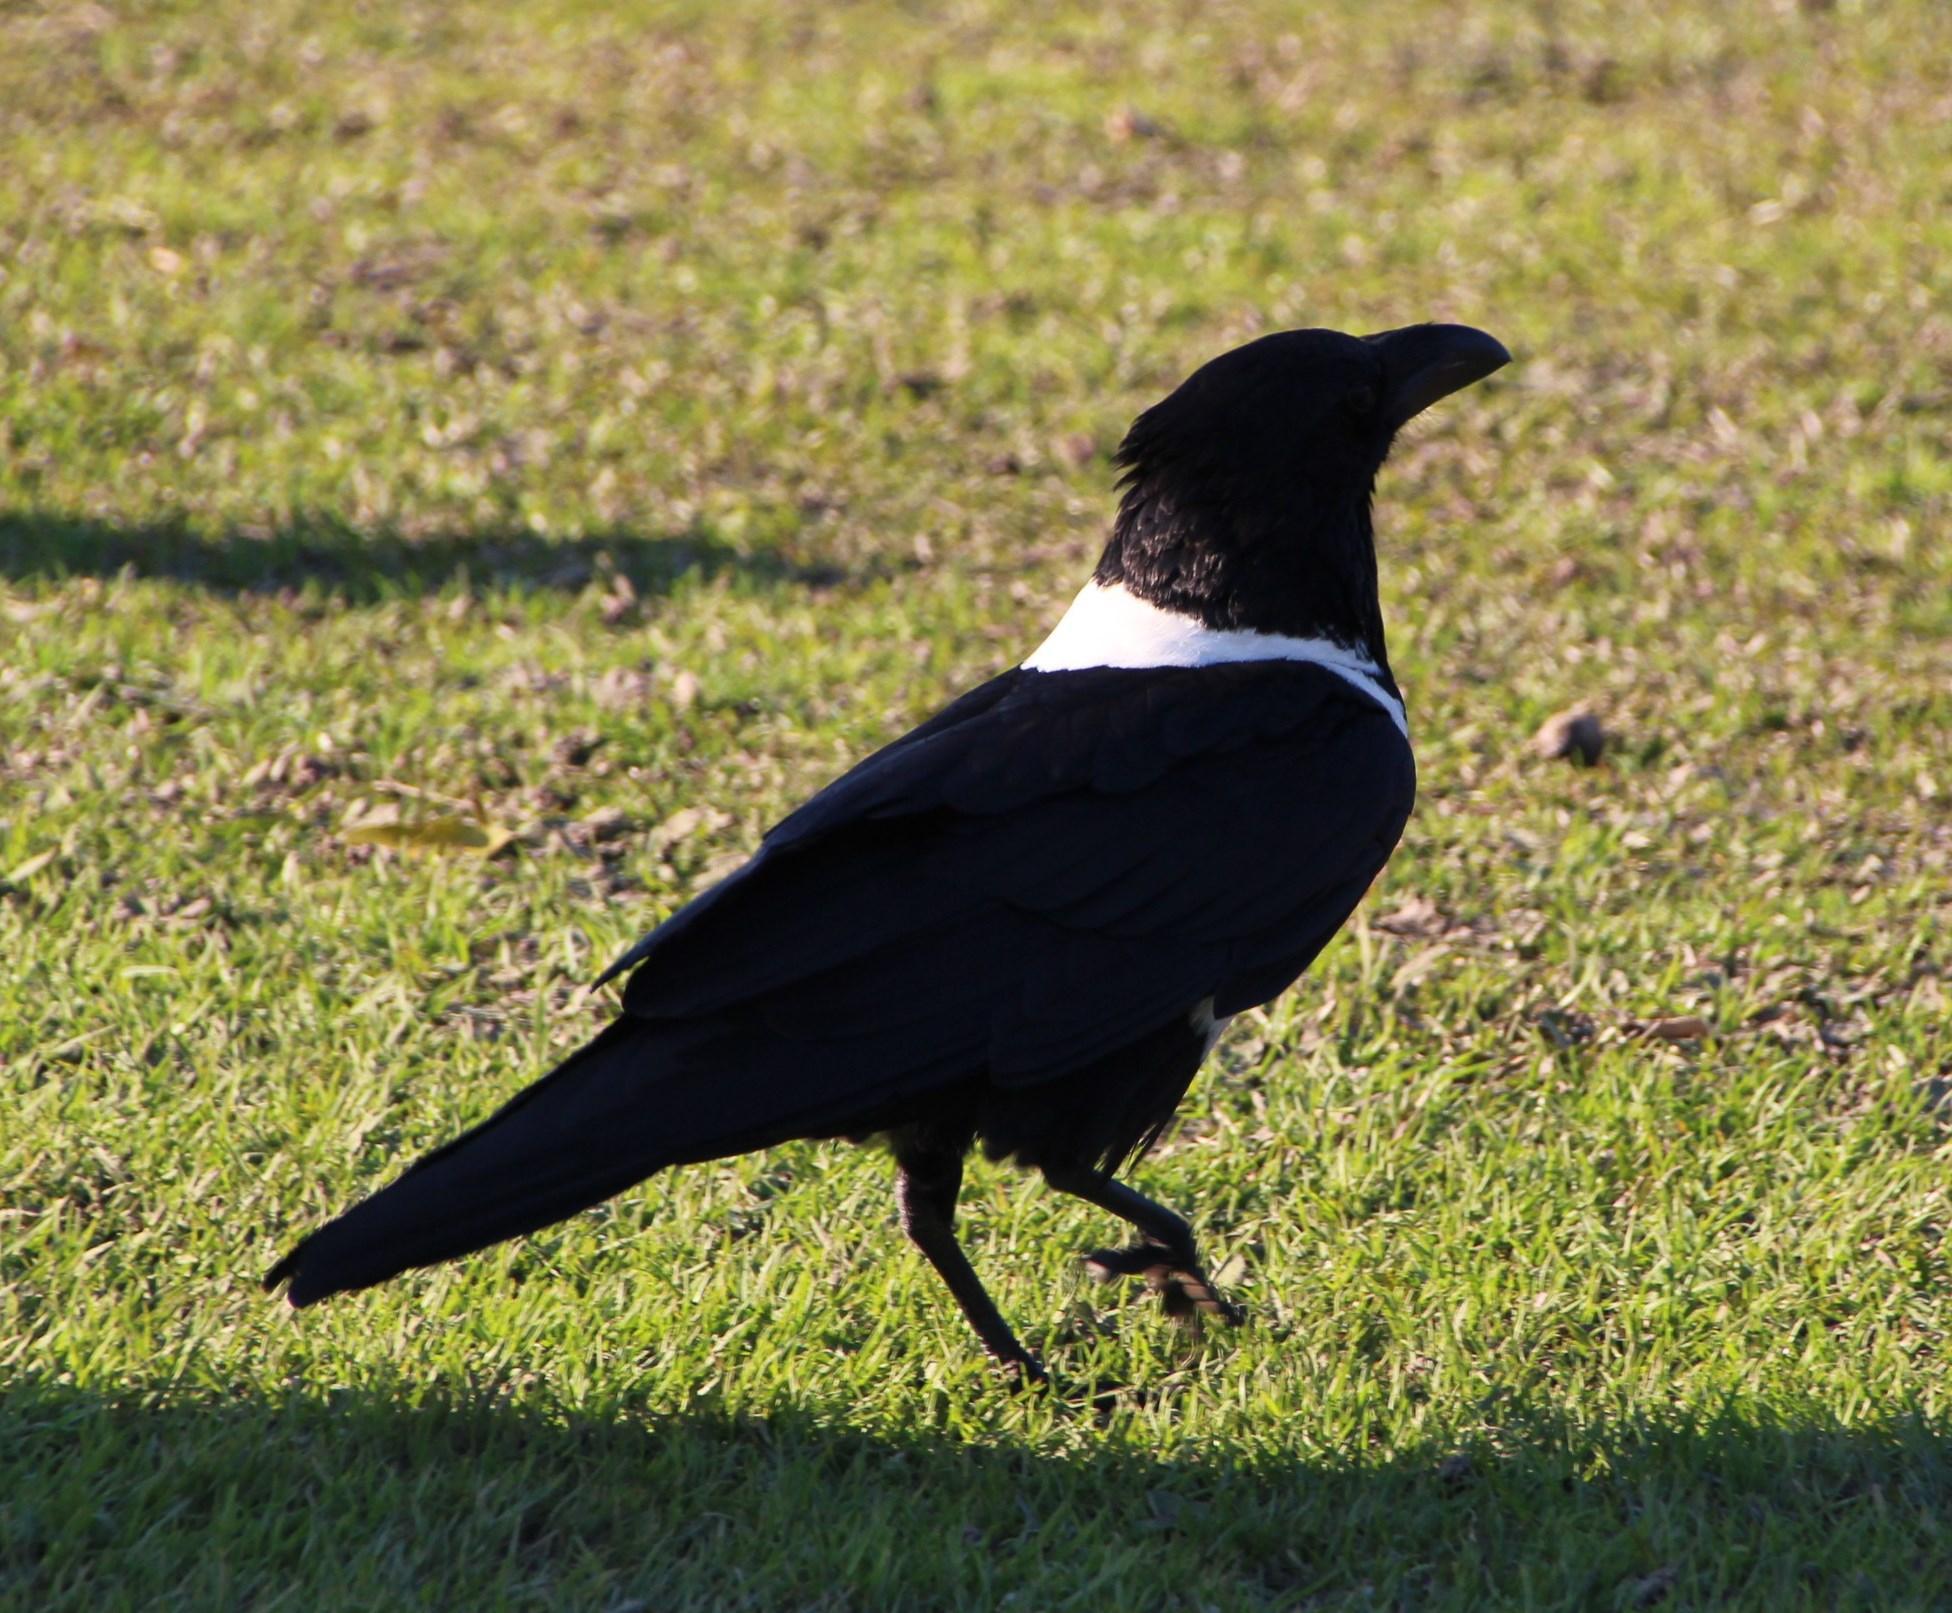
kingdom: Animalia
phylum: Chordata
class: Aves
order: Passeriformes
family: Corvidae
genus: Corvus
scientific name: Corvus albus
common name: Pied crow
